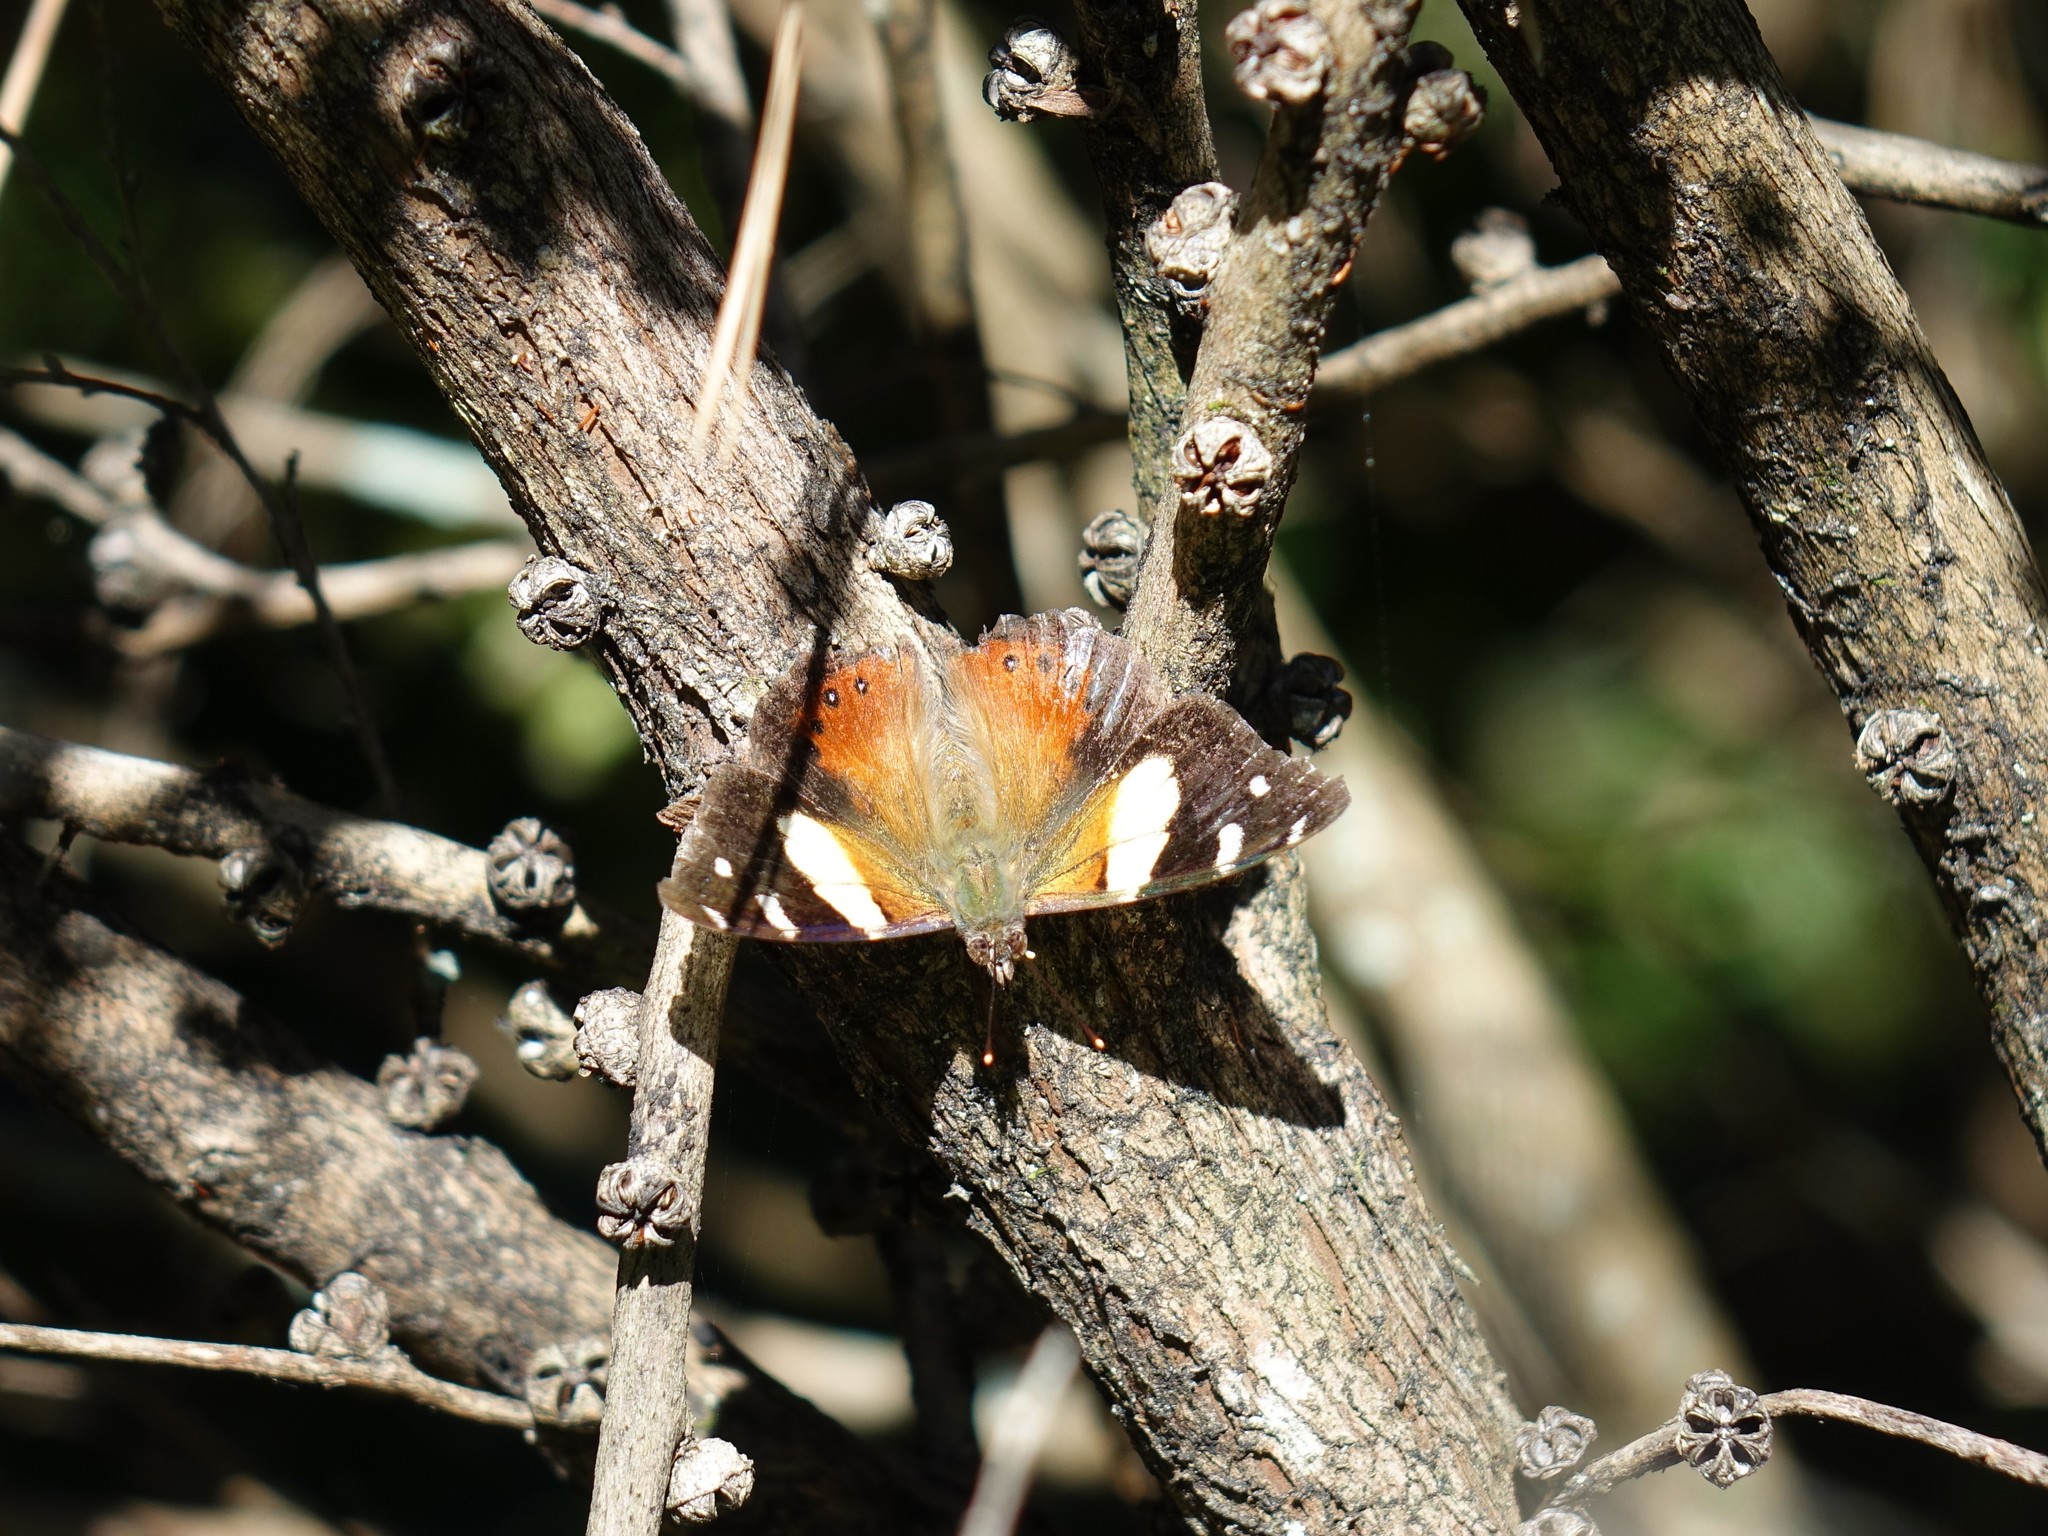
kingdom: Animalia
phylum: Arthropoda
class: Insecta
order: Lepidoptera
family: Nymphalidae
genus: Vanessa
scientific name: Vanessa itea
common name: Yellow admiral
